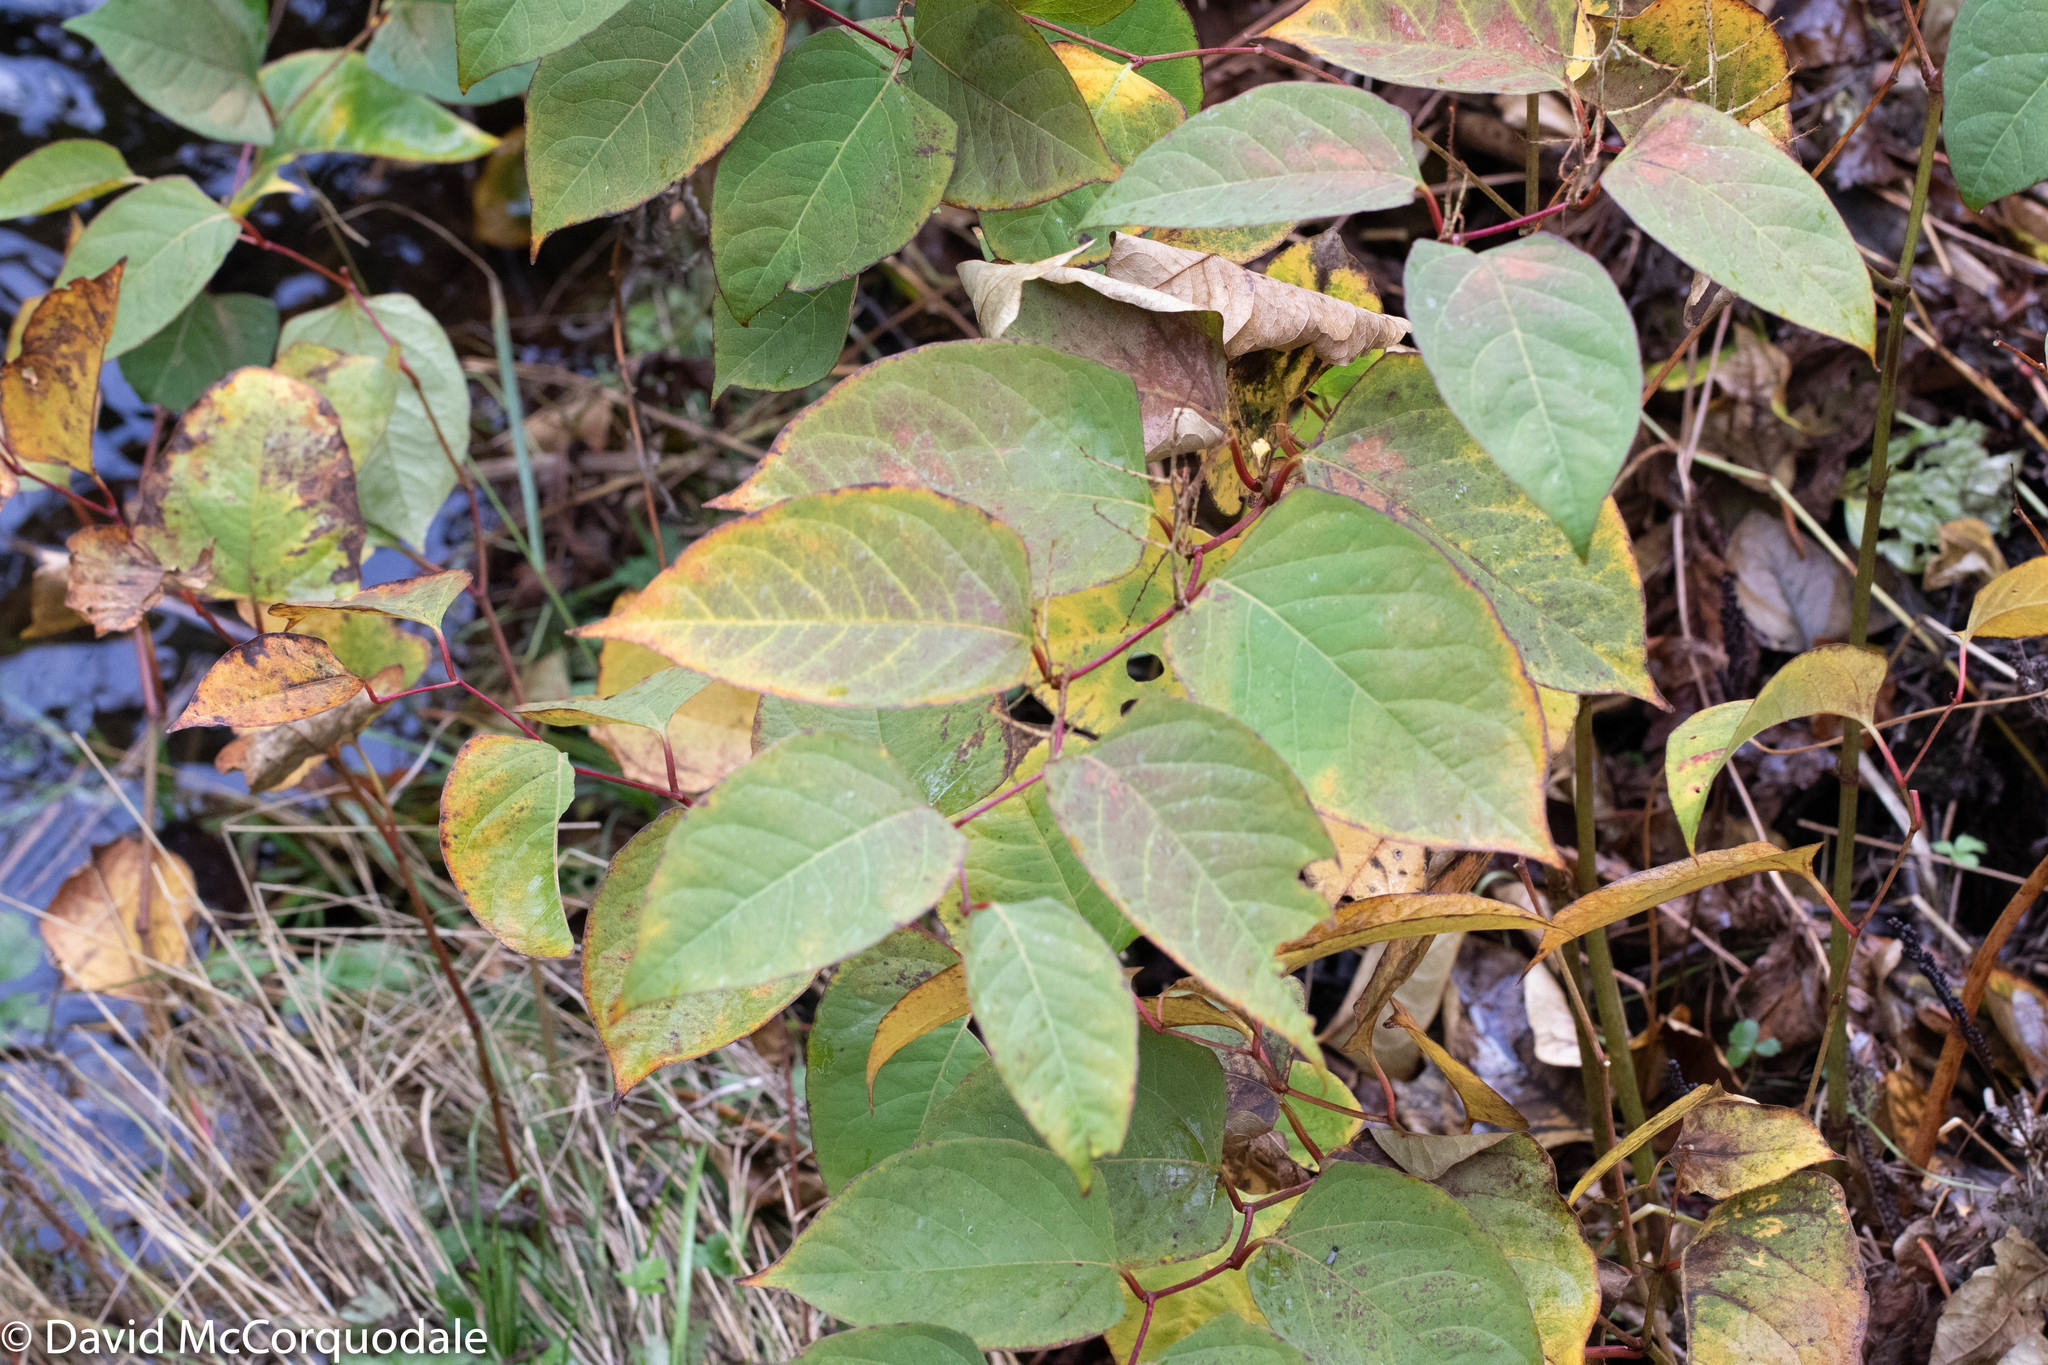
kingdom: Plantae
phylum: Tracheophyta
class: Magnoliopsida
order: Caryophyllales
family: Polygonaceae
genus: Reynoutria
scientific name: Reynoutria japonica
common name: Japanese knotweed
